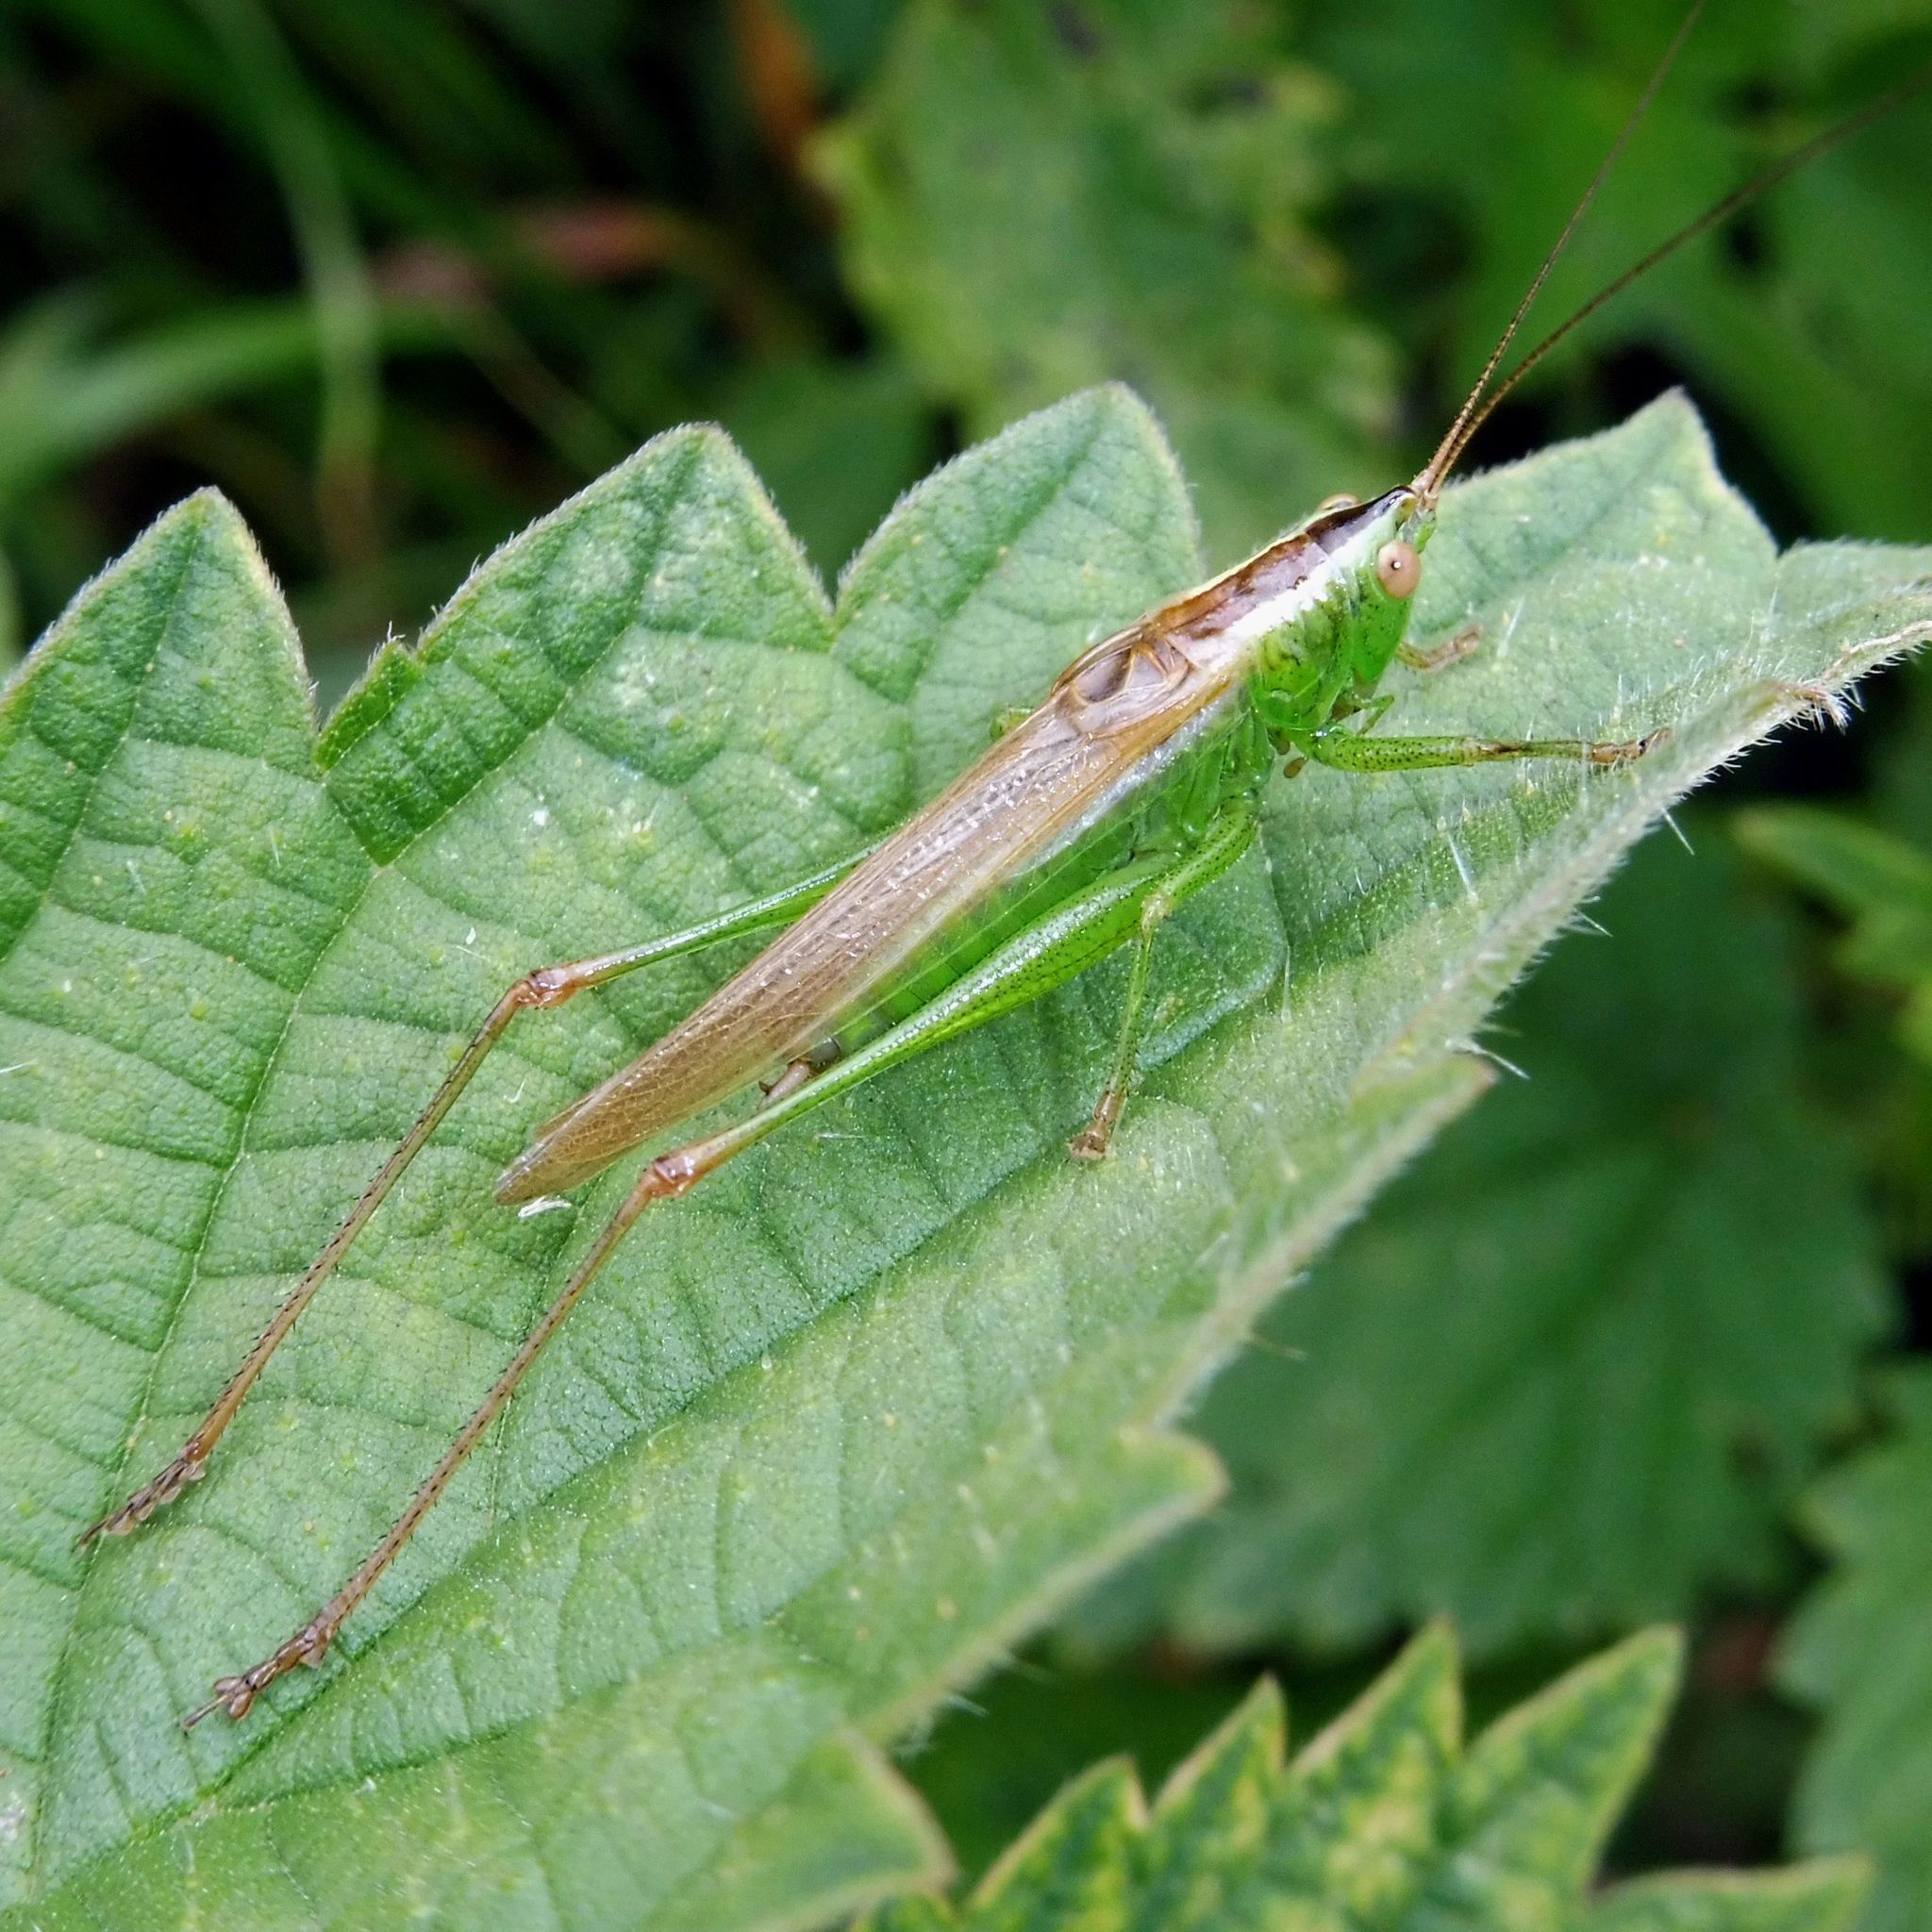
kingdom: Animalia
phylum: Arthropoda
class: Insecta
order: Orthoptera
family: Tettigoniidae
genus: Conocephalus
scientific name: Conocephalus fuscus
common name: Long-winged conehead
